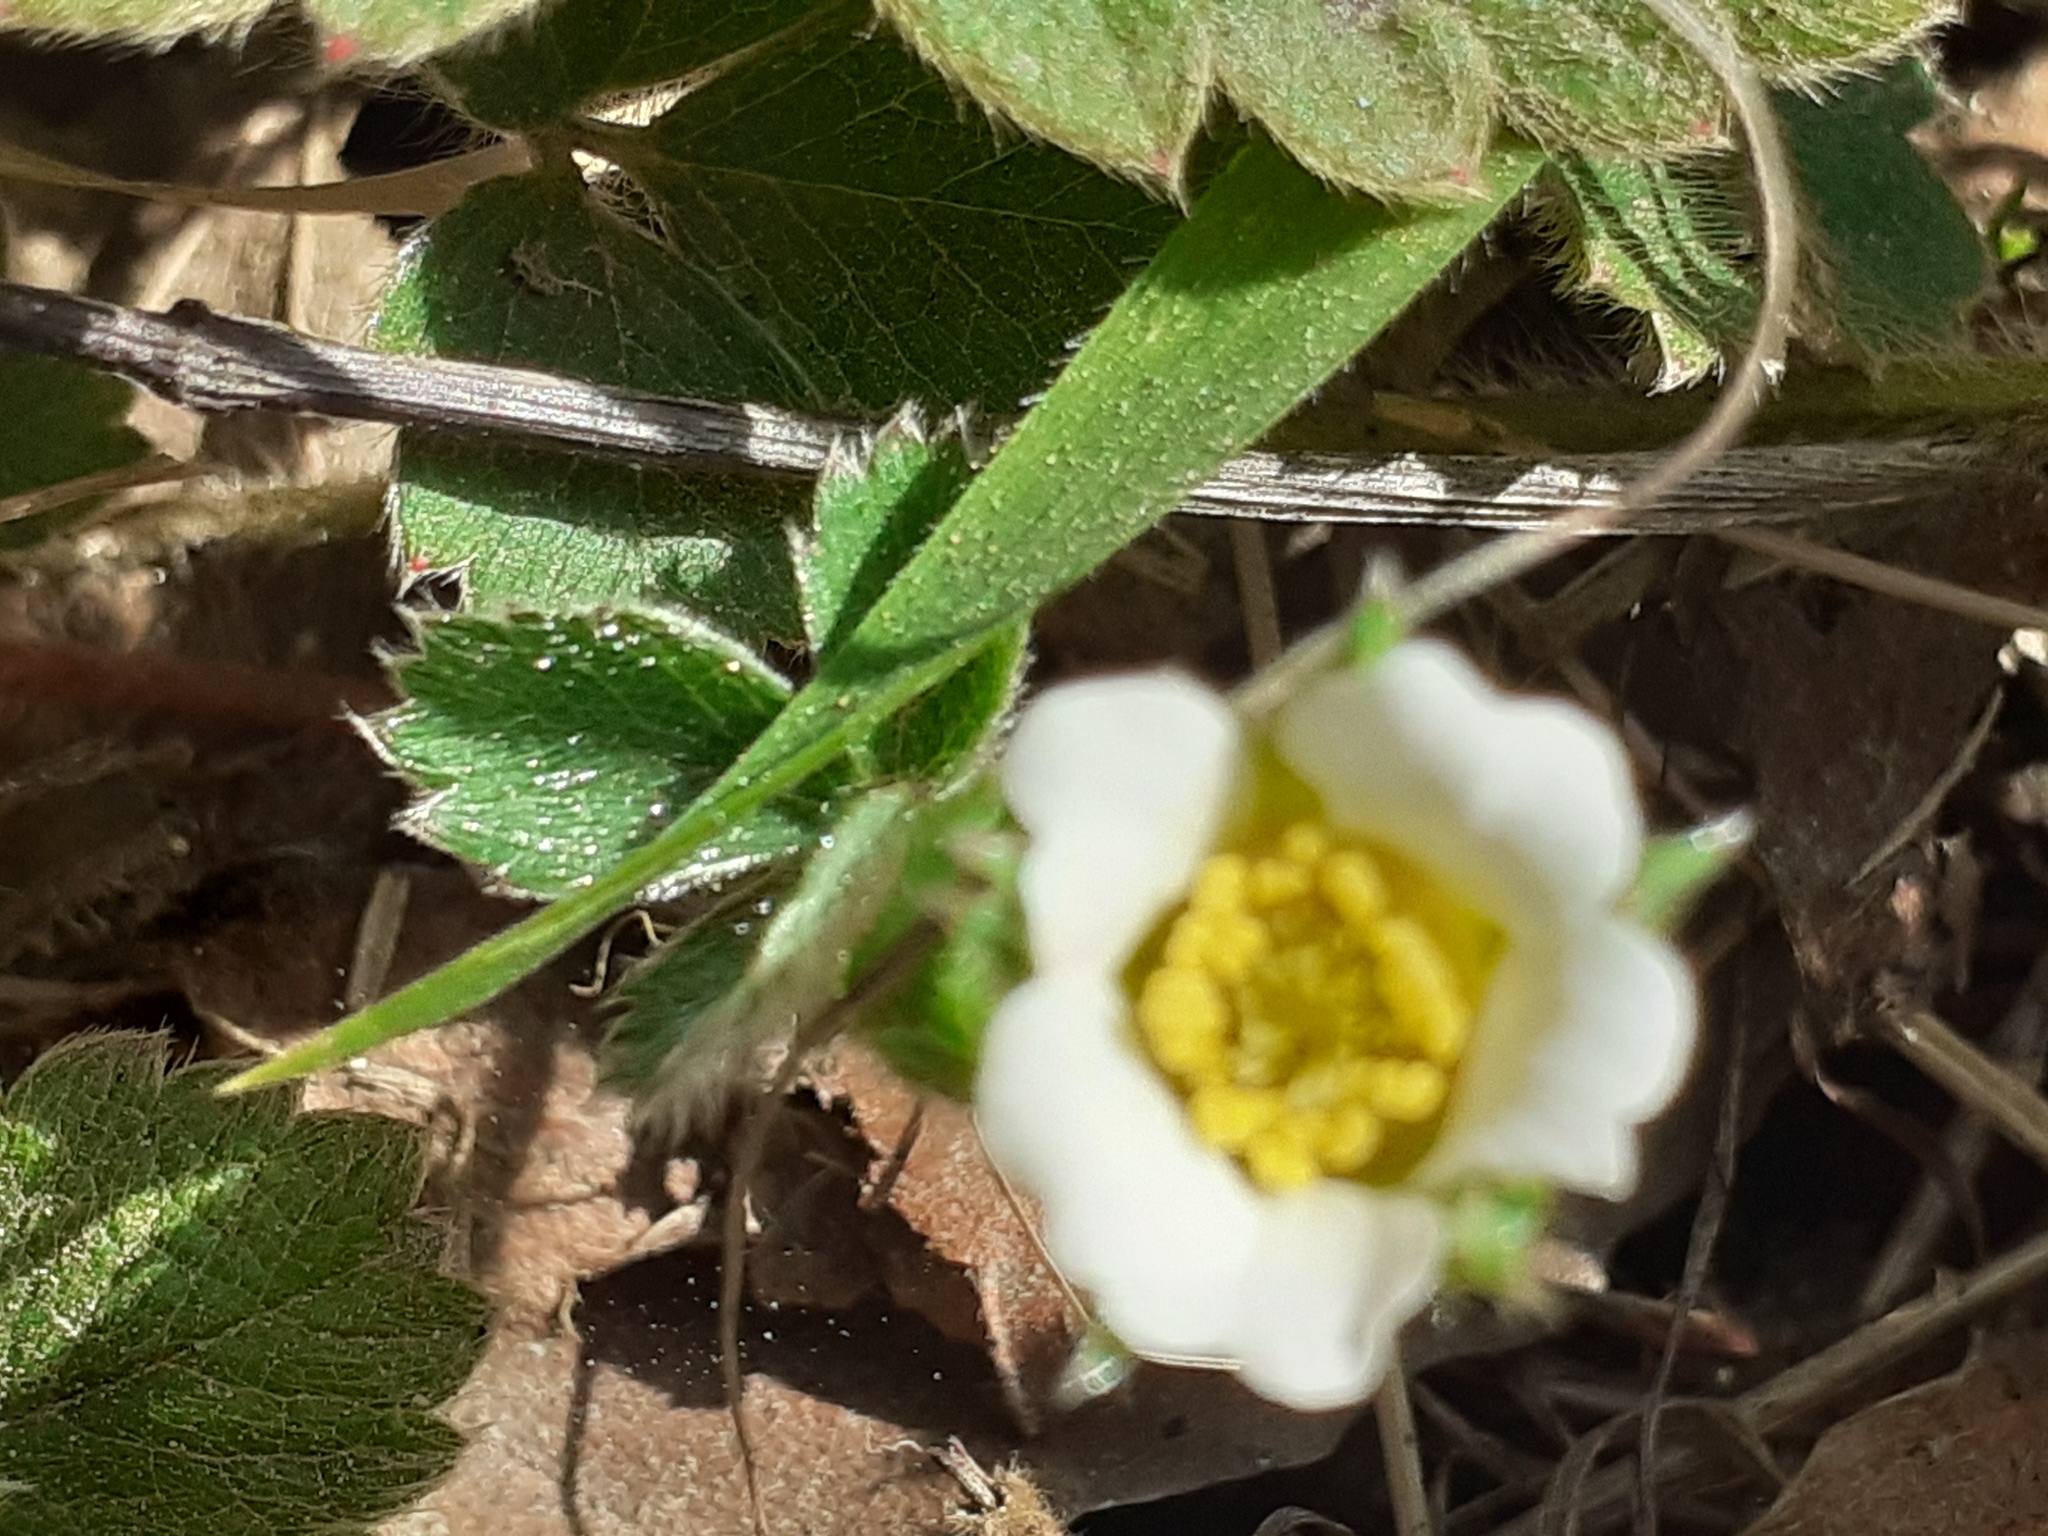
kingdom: Plantae
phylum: Tracheophyta
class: Magnoliopsida
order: Rosales
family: Rosaceae
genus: Potentilla
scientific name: Potentilla sterilis
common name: Barren strawberry
